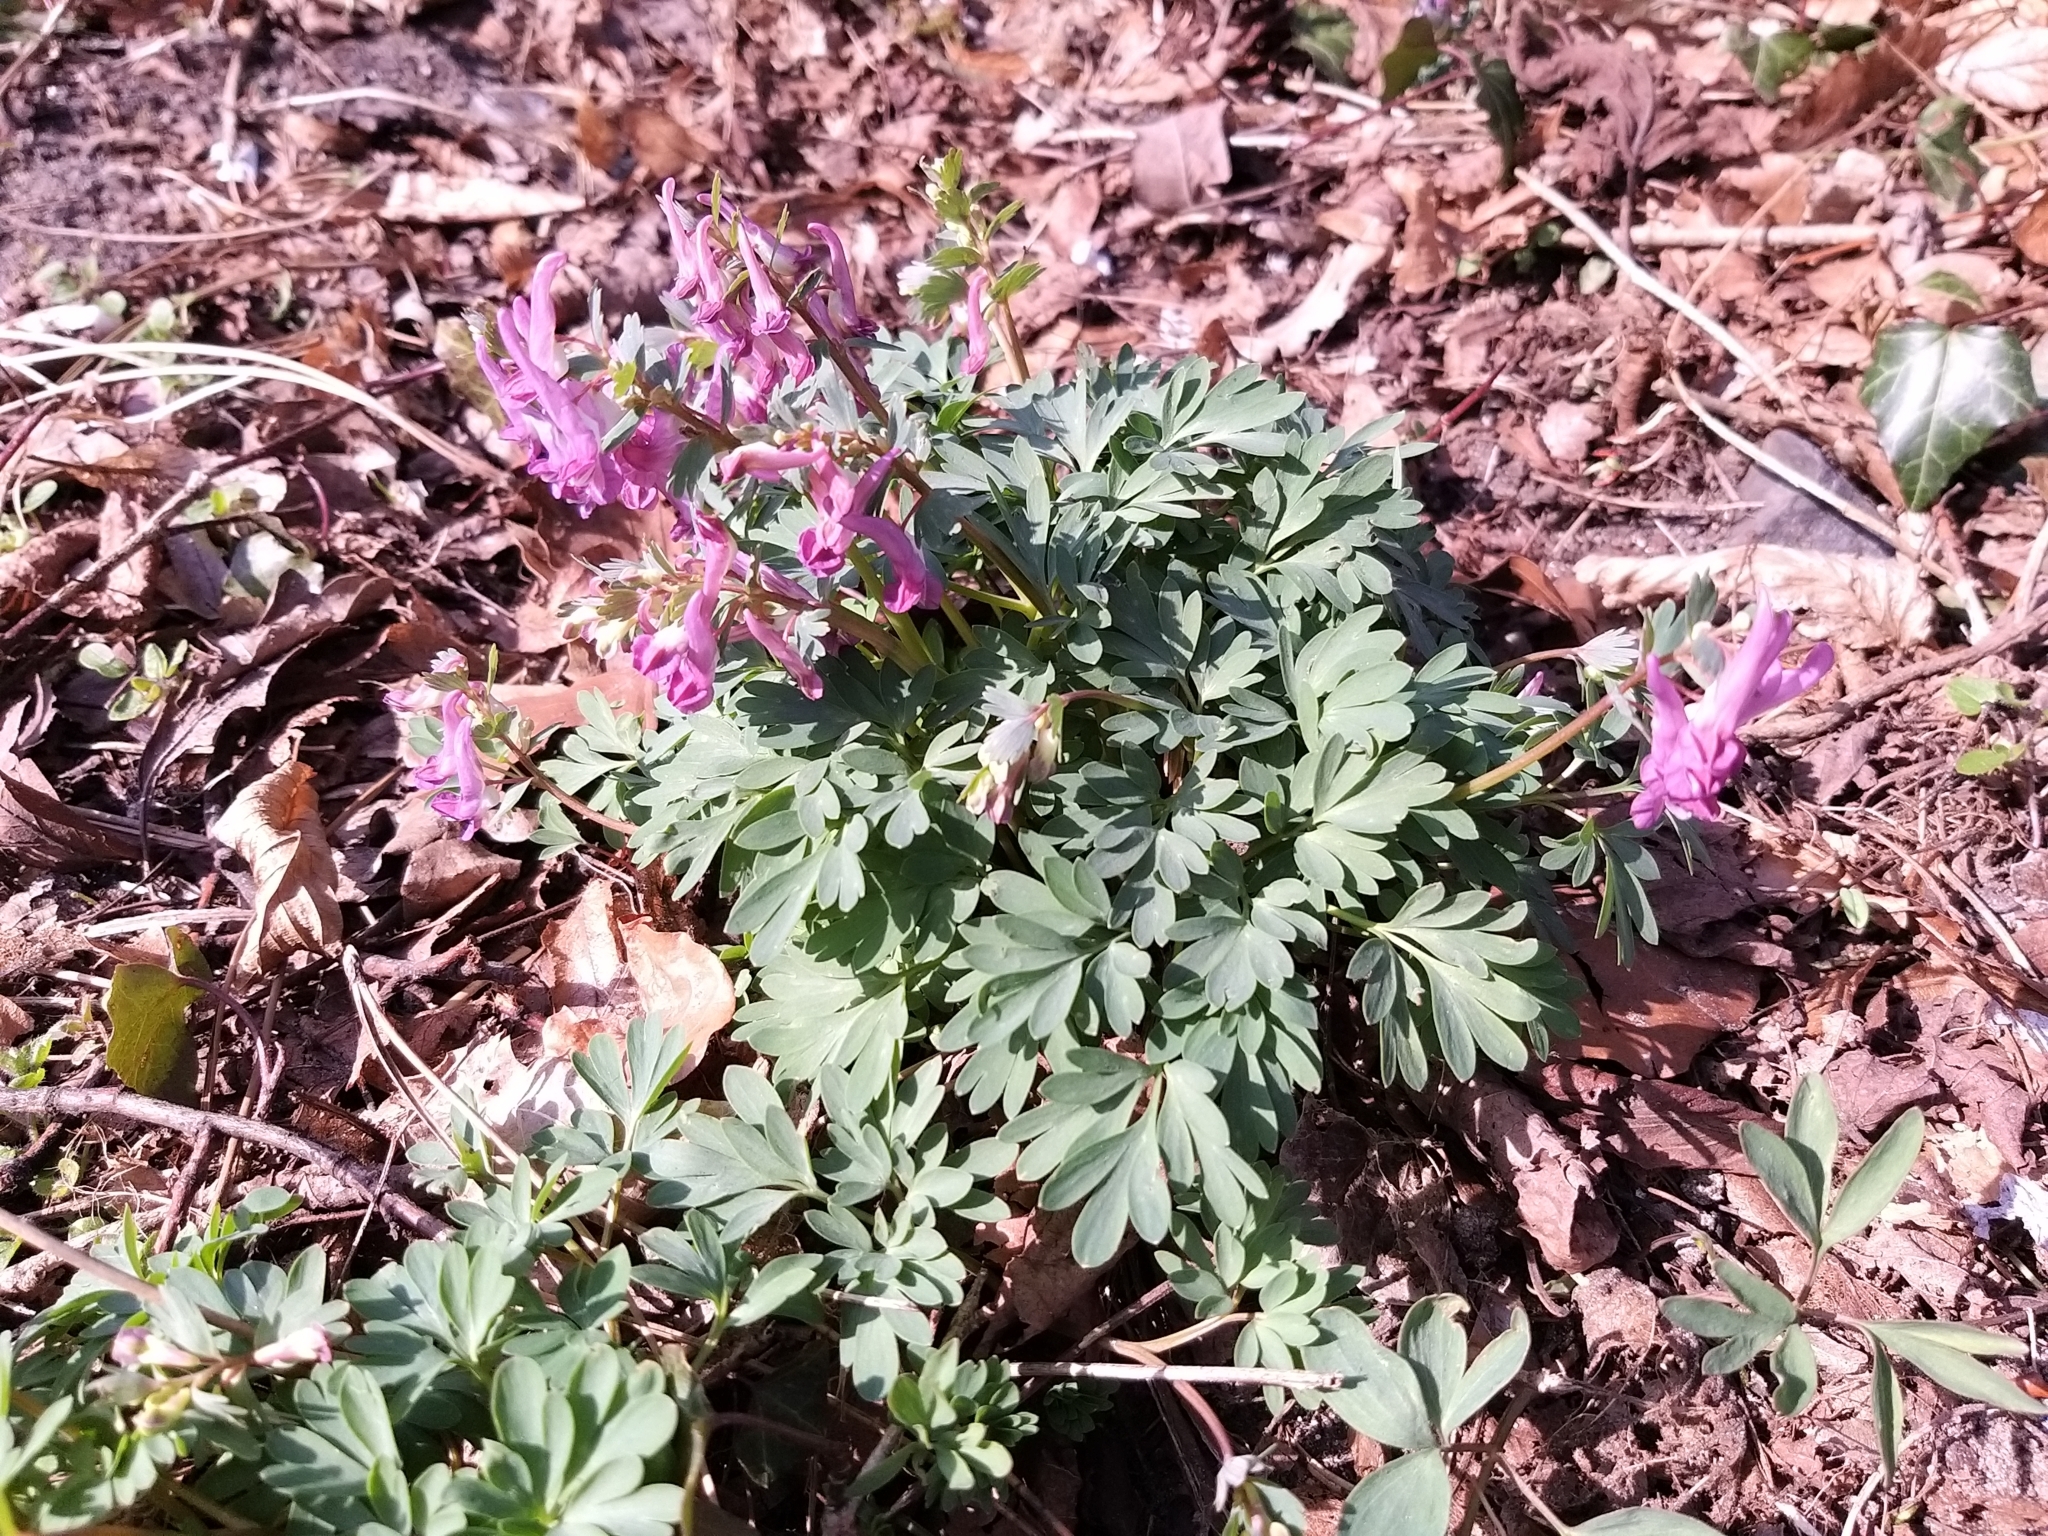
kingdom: Plantae
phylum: Tracheophyta
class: Magnoliopsida
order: Ranunculales
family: Papaveraceae
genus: Corydalis
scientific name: Corydalis solida
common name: Bird-in-a-bush
